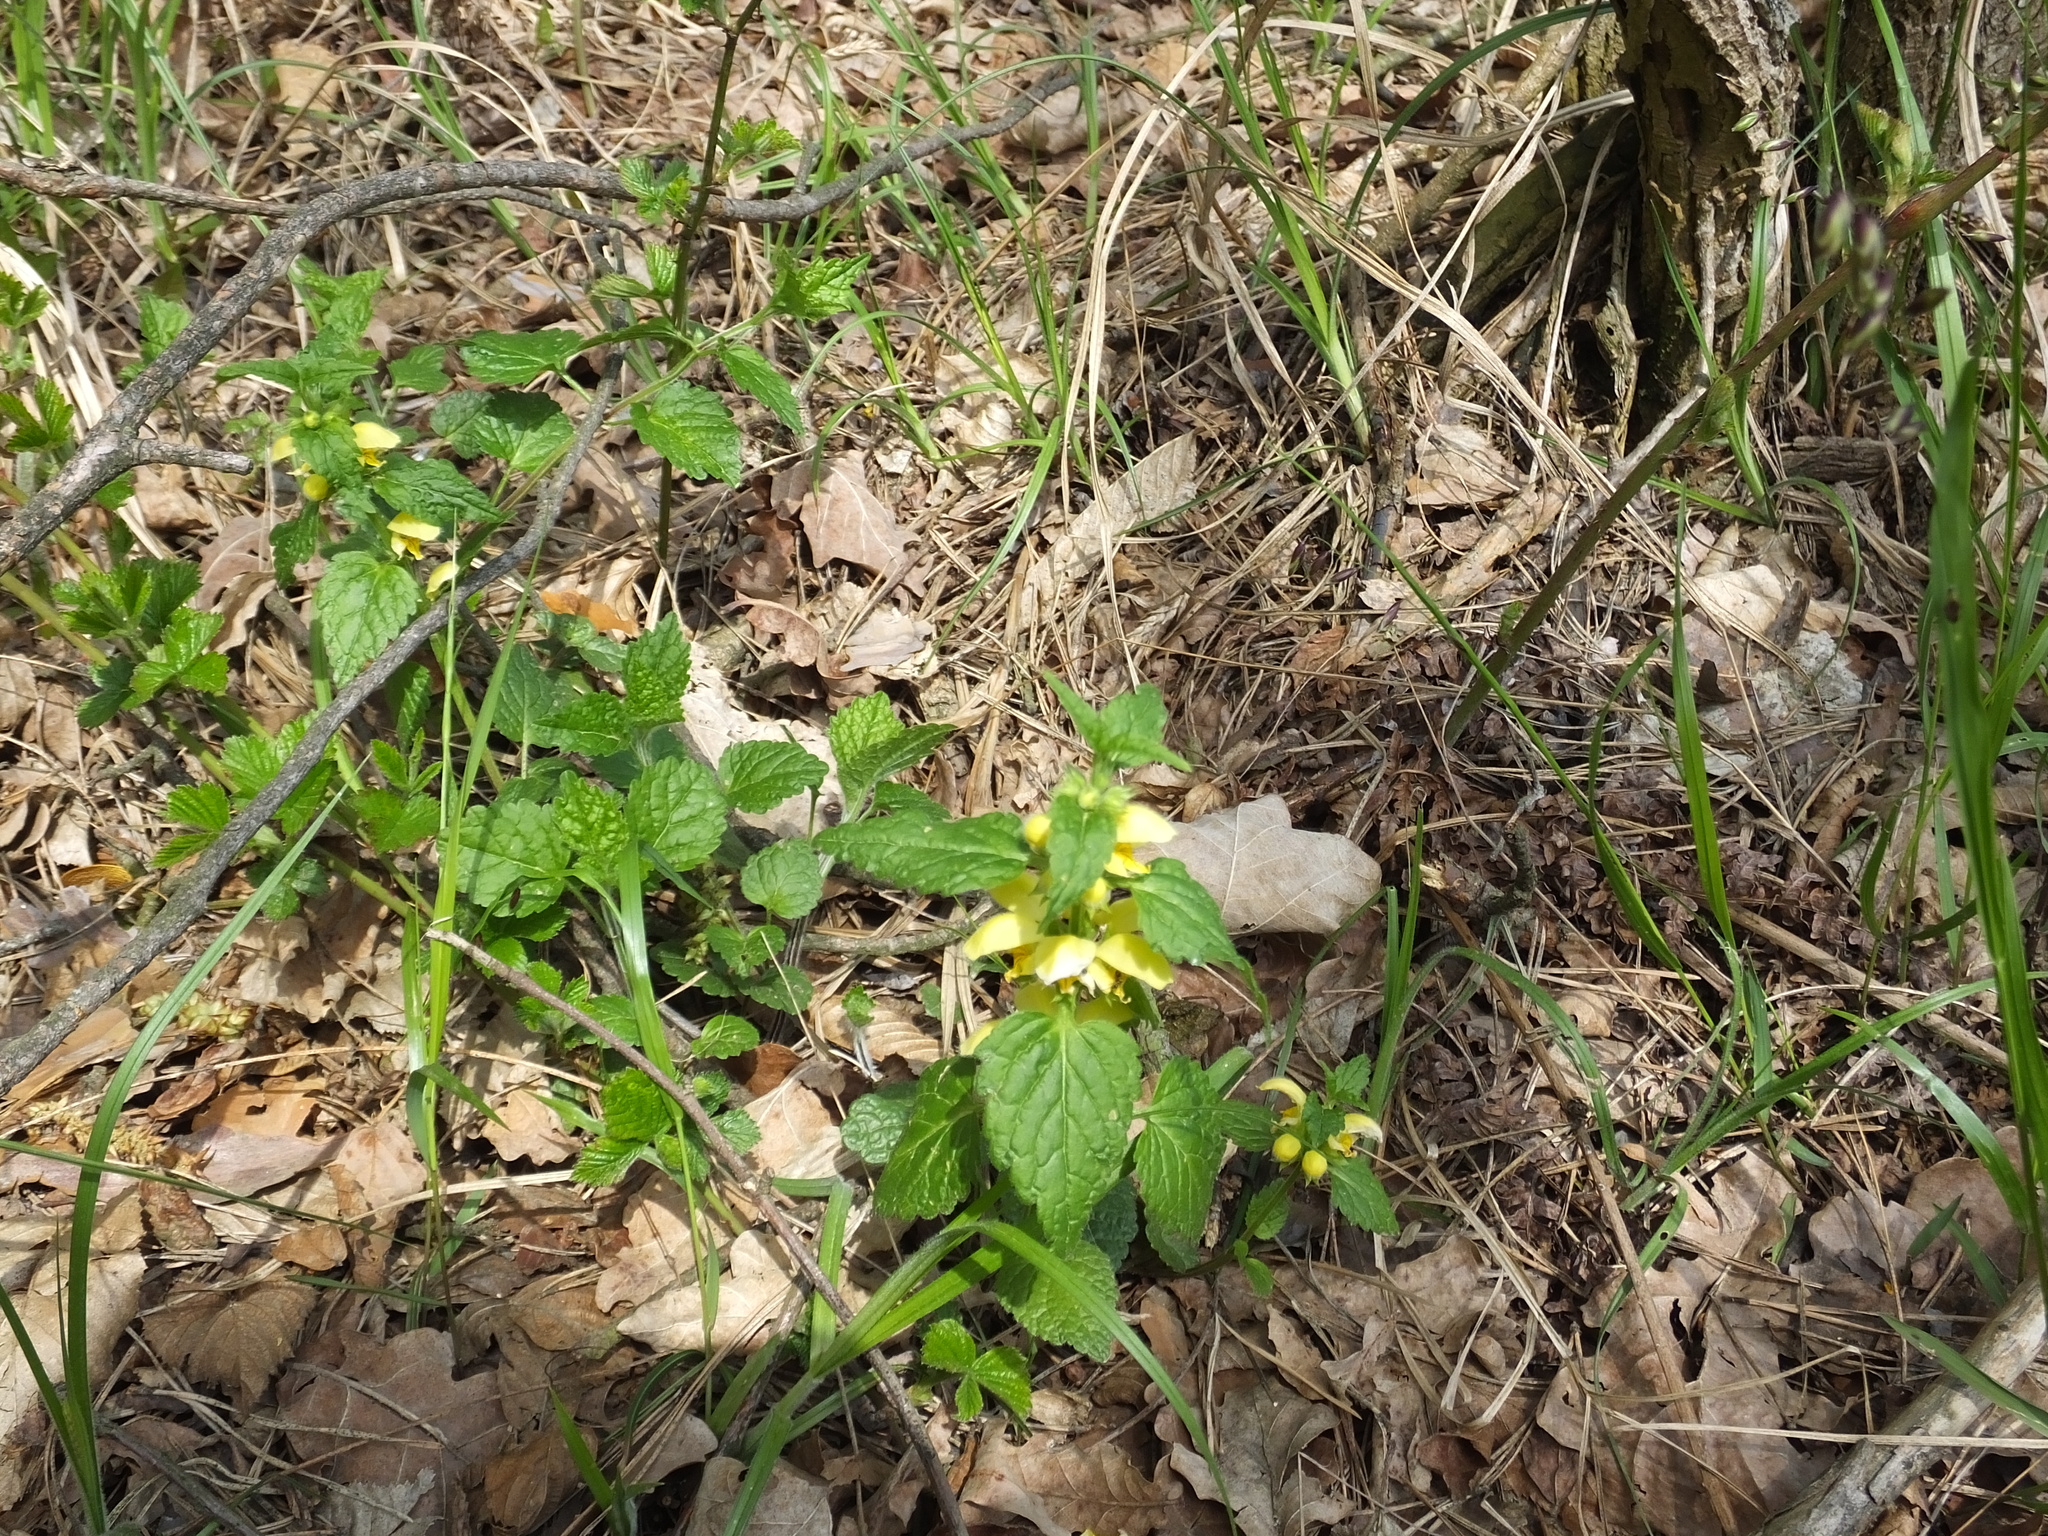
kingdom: Plantae
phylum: Tracheophyta
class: Magnoliopsida
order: Lamiales
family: Lamiaceae
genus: Lamium
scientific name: Lamium galeobdolon
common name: Yellow archangel
